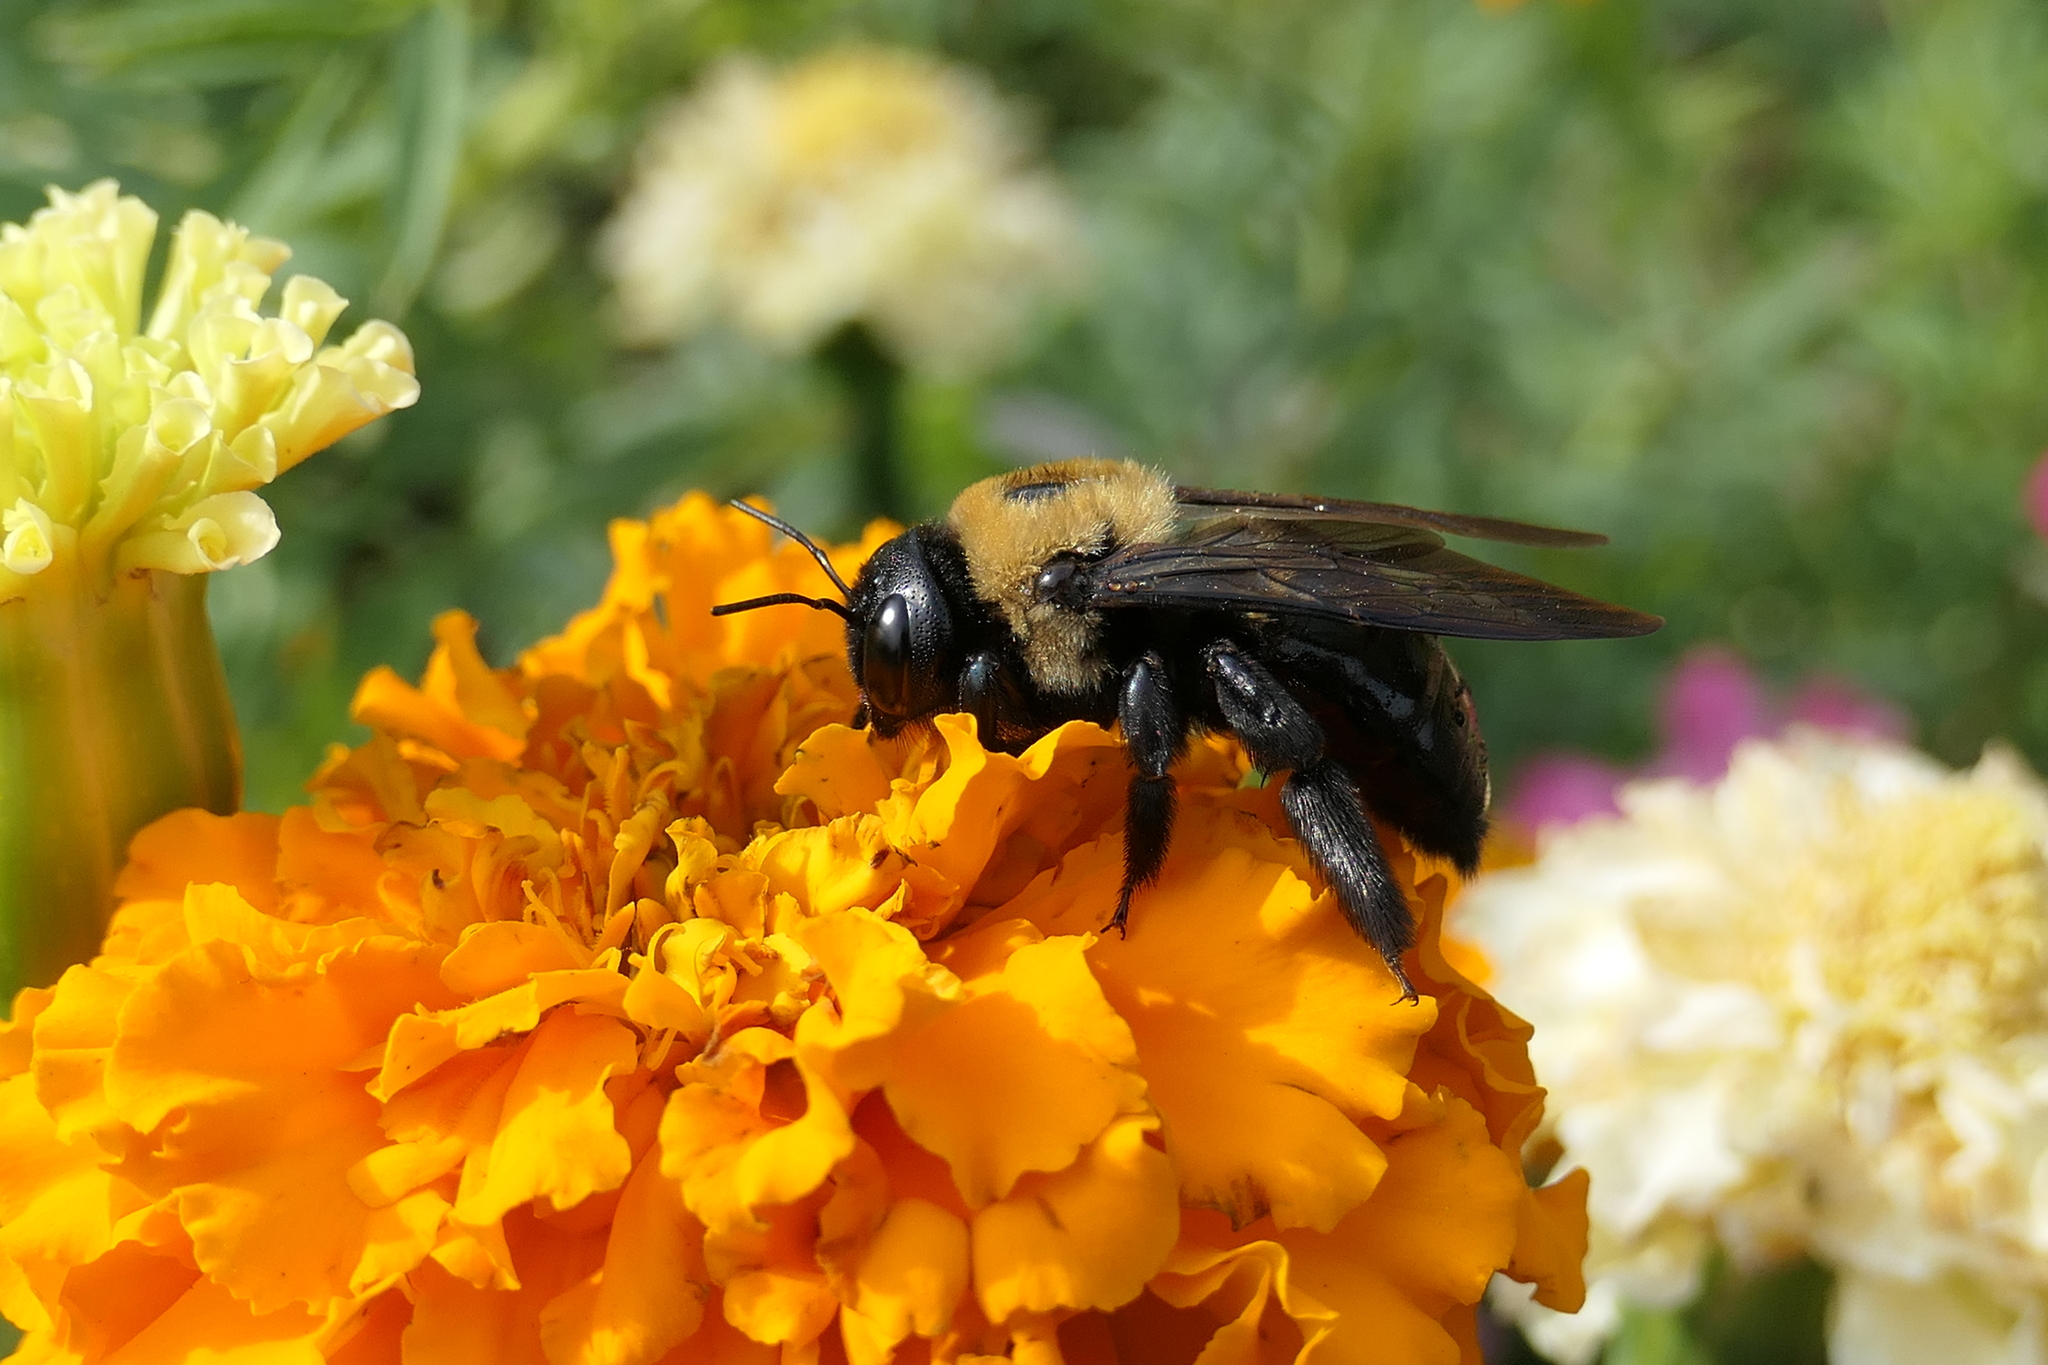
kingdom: Animalia
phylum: Arthropoda
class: Insecta
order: Hymenoptera
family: Apidae
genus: Xylocopa
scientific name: Xylocopa virginica
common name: Carpenter bee
